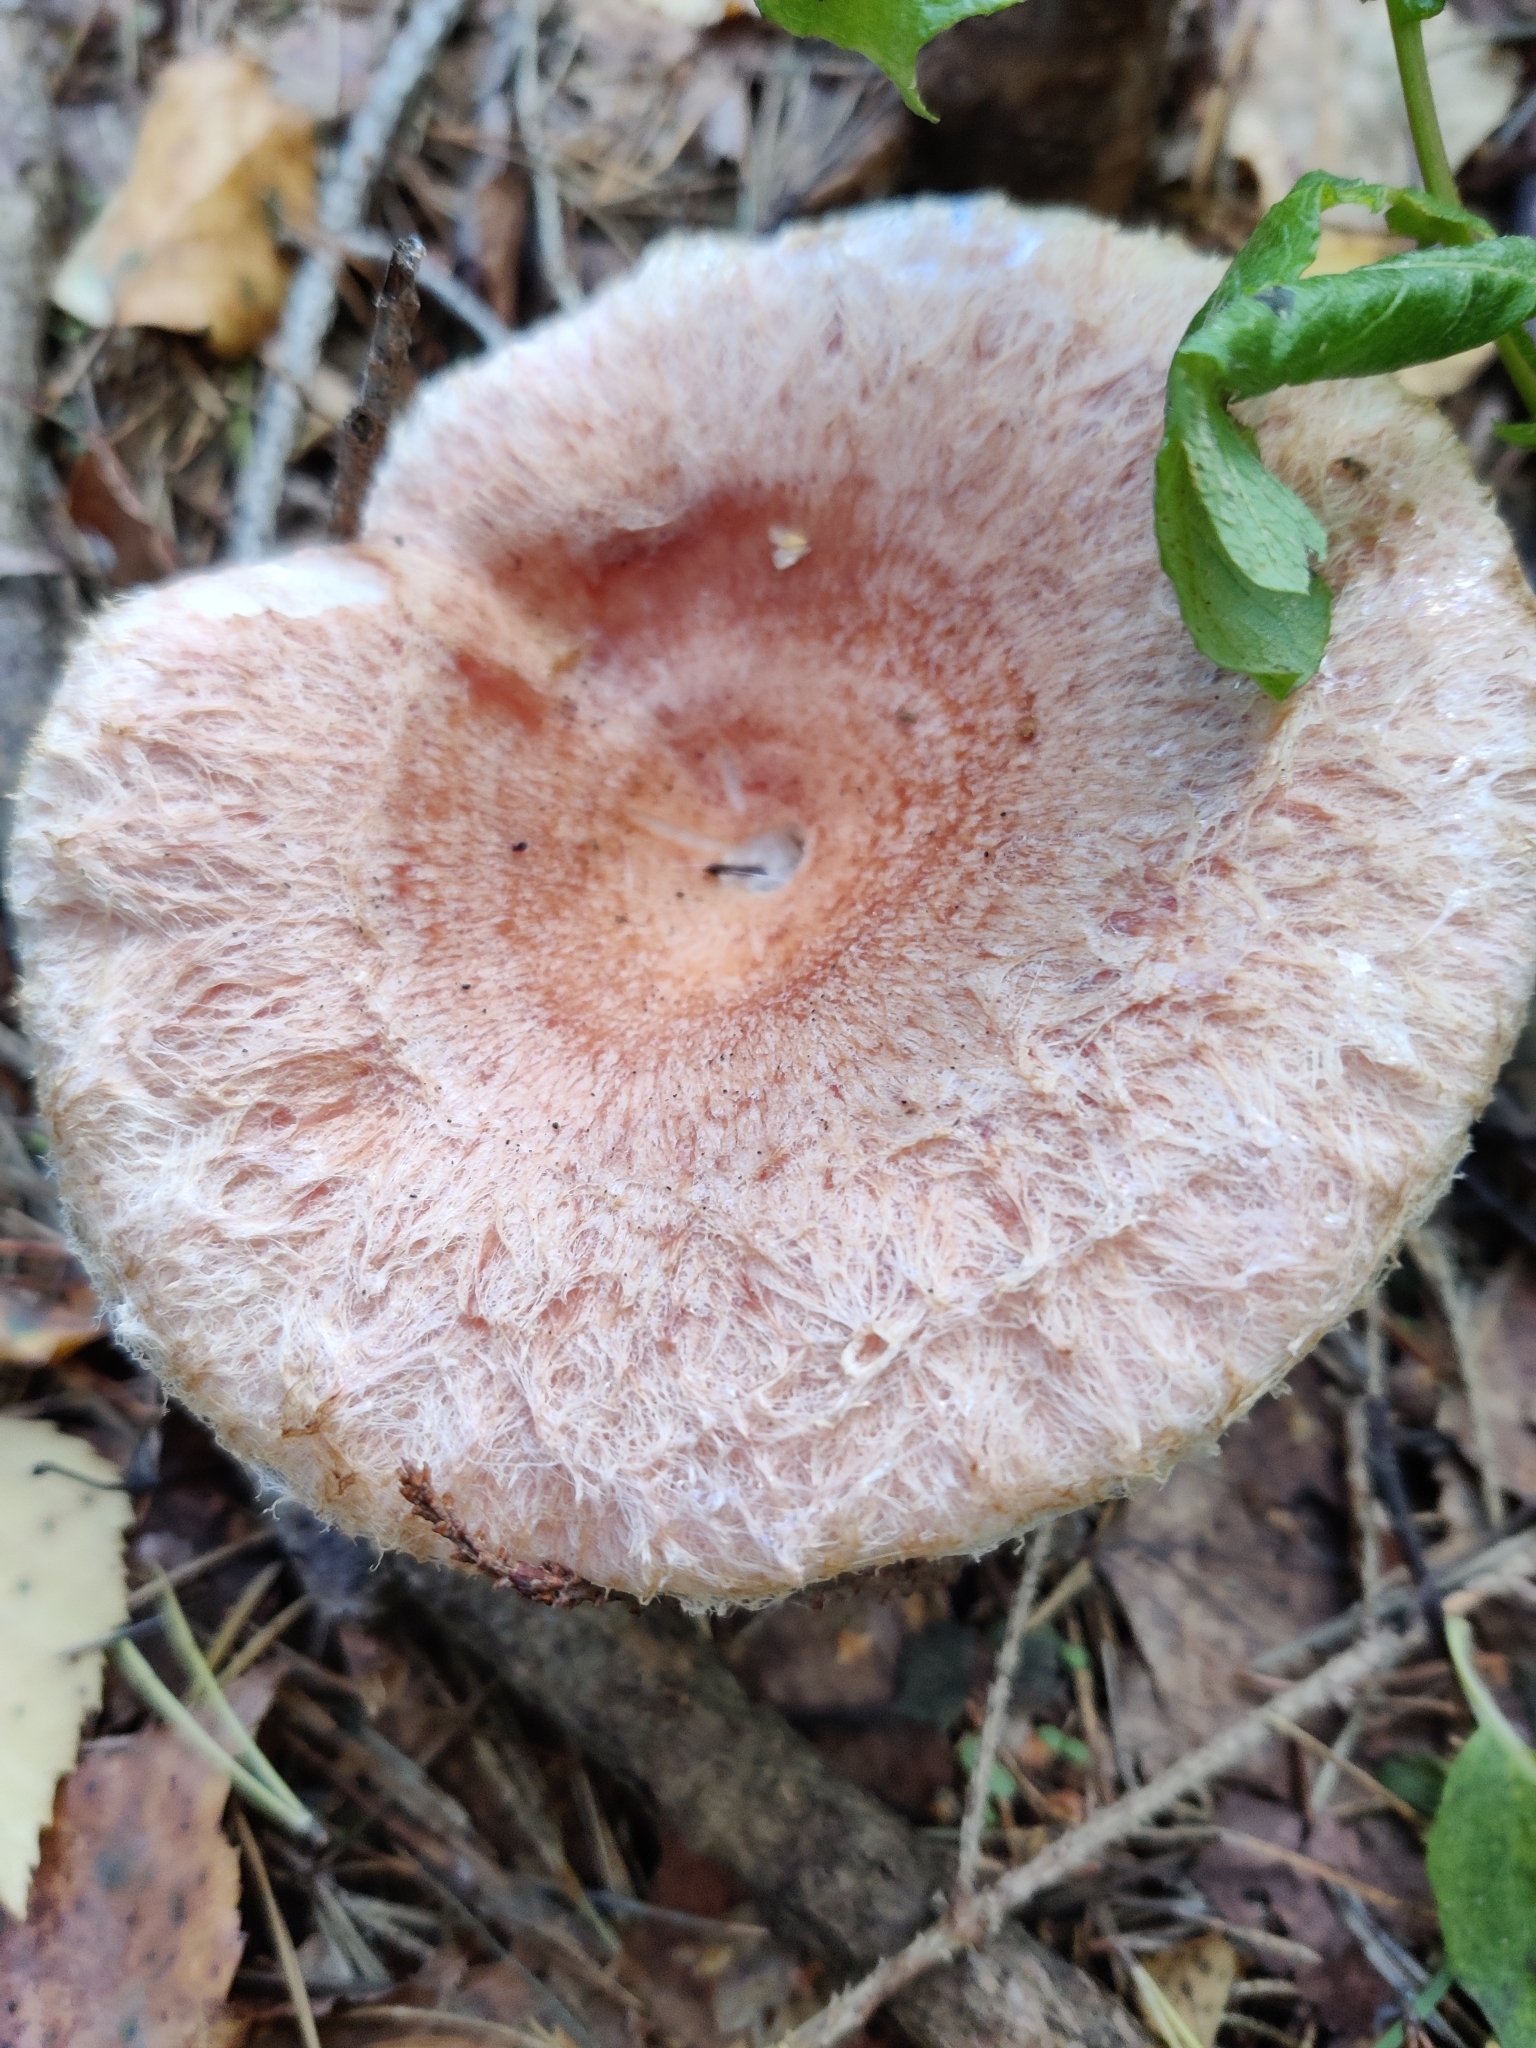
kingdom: Fungi
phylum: Basidiomycota
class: Agaricomycetes
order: Russulales
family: Russulaceae
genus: Lactarius
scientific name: Lactarius torminosus
